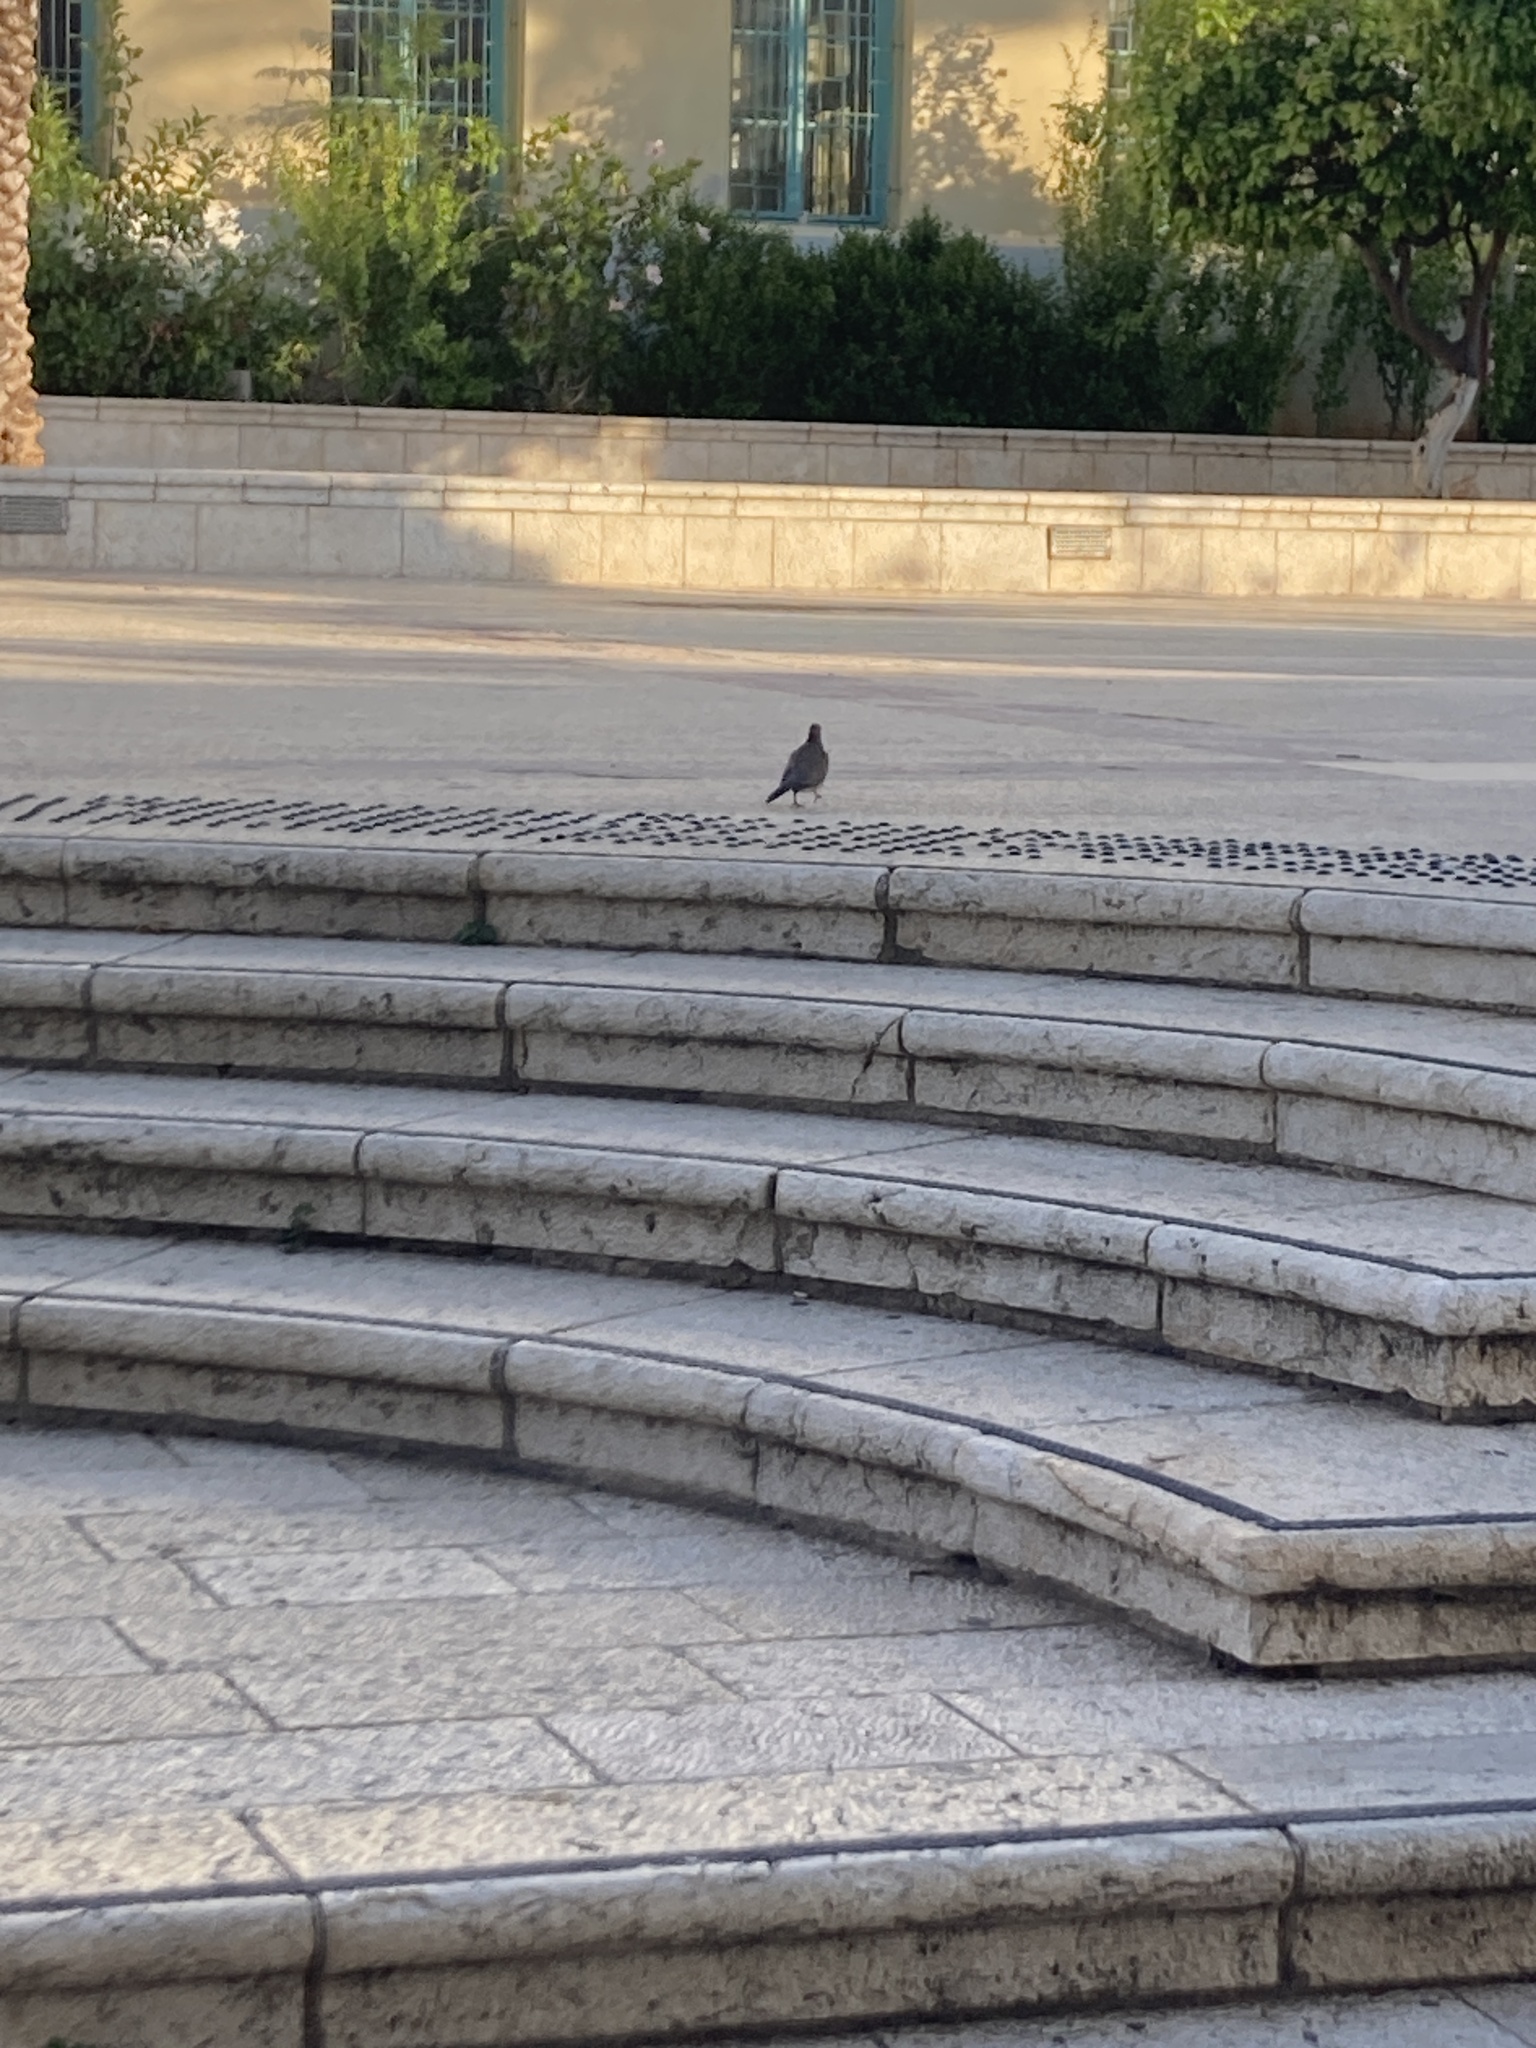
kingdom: Animalia
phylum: Chordata
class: Aves
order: Columbiformes
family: Columbidae
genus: Spilopelia
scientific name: Spilopelia senegalensis
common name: Laughing dove
